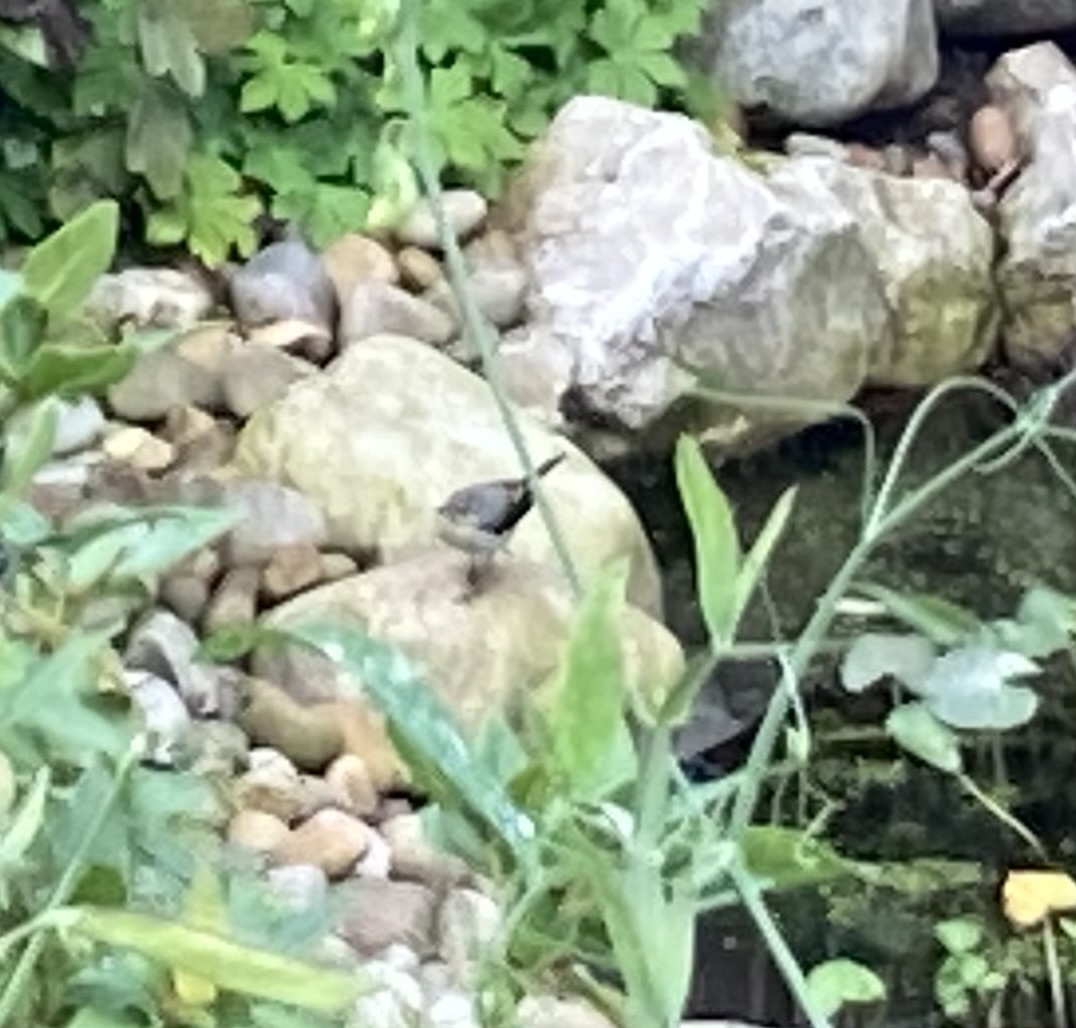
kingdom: Animalia
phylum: Chordata
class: Aves
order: Passeriformes
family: Motacillidae
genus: Motacilla
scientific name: Motacilla cinerea
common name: Grey wagtail
